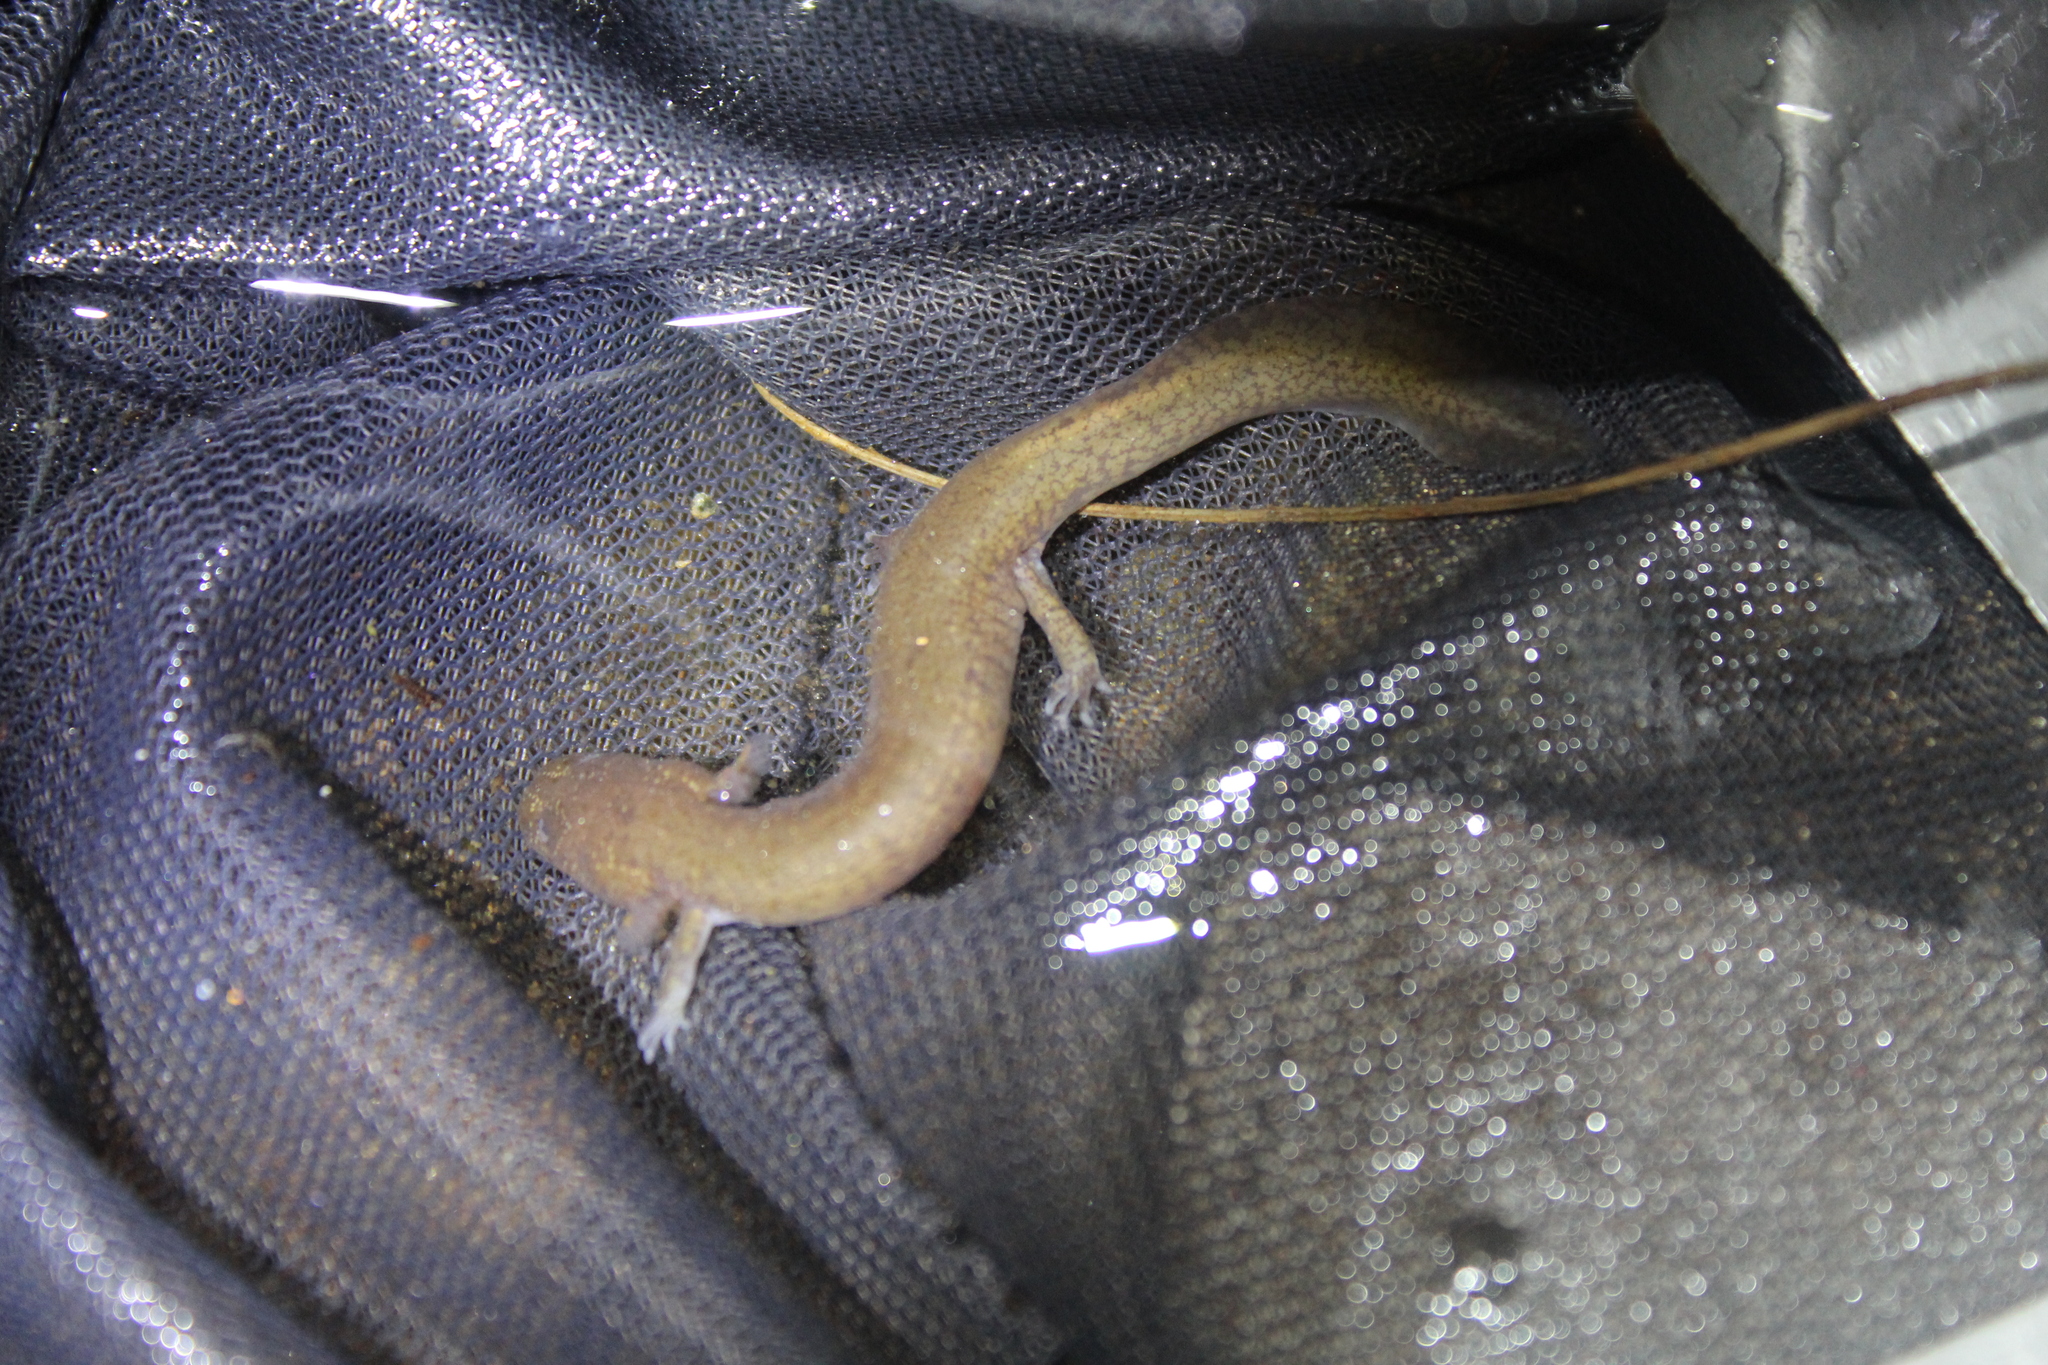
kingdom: Animalia
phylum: Chordata
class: Amphibia
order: Caudata
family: Plethodontidae
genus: Gyrinophilus
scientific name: Gyrinophilus porphyriticus
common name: Spring salamander
